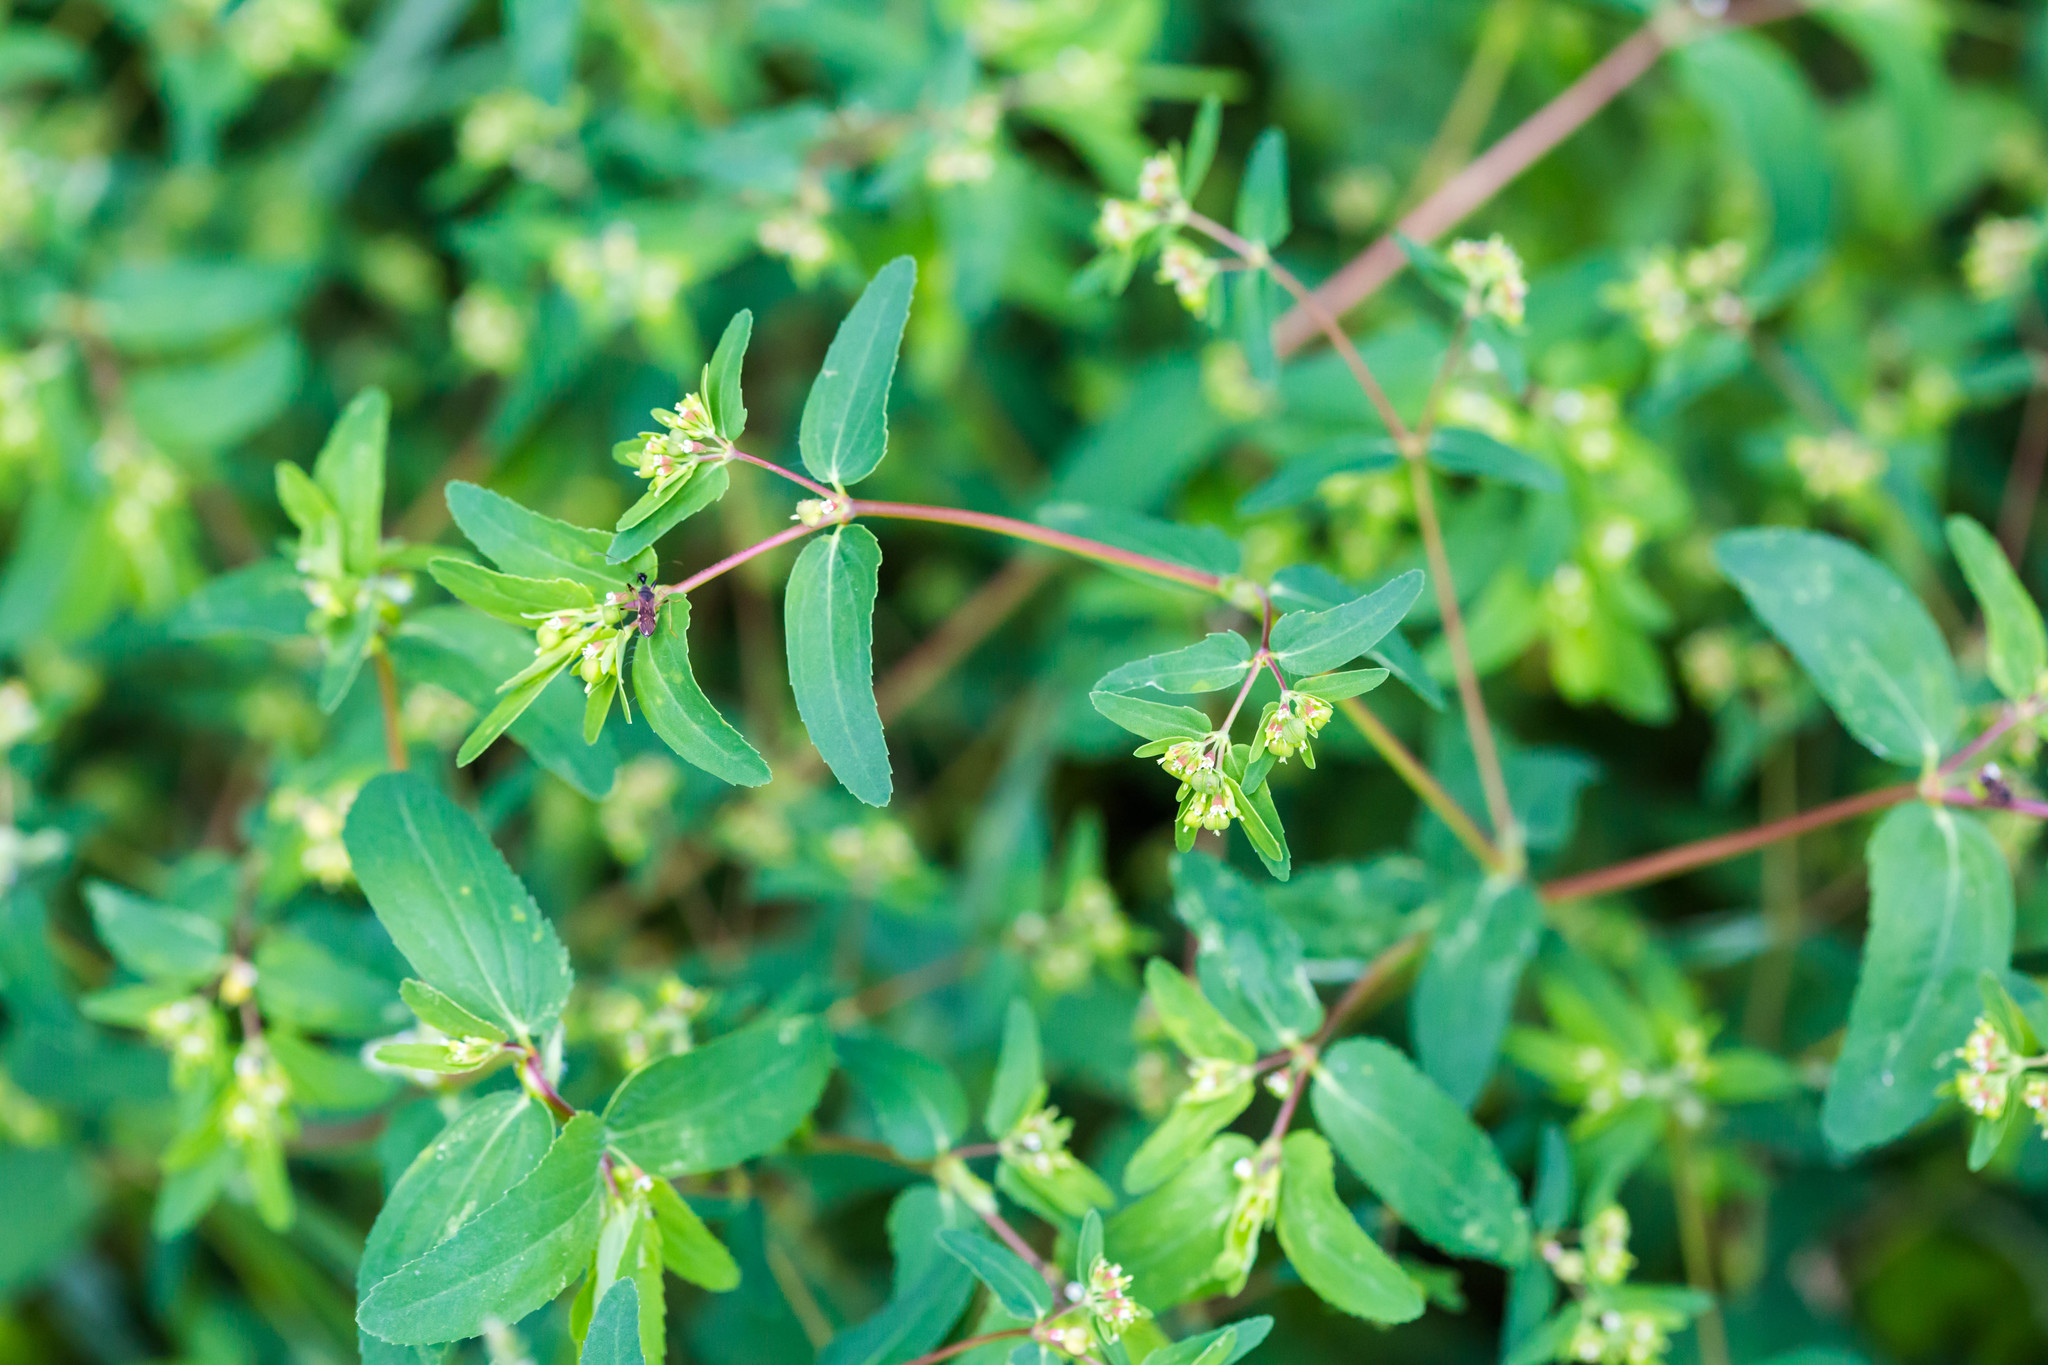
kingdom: Plantae
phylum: Tracheophyta
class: Magnoliopsida
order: Malpighiales
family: Euphorbiaceae
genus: Euphorbia
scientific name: Euphorbia nutans
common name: Eyebane
